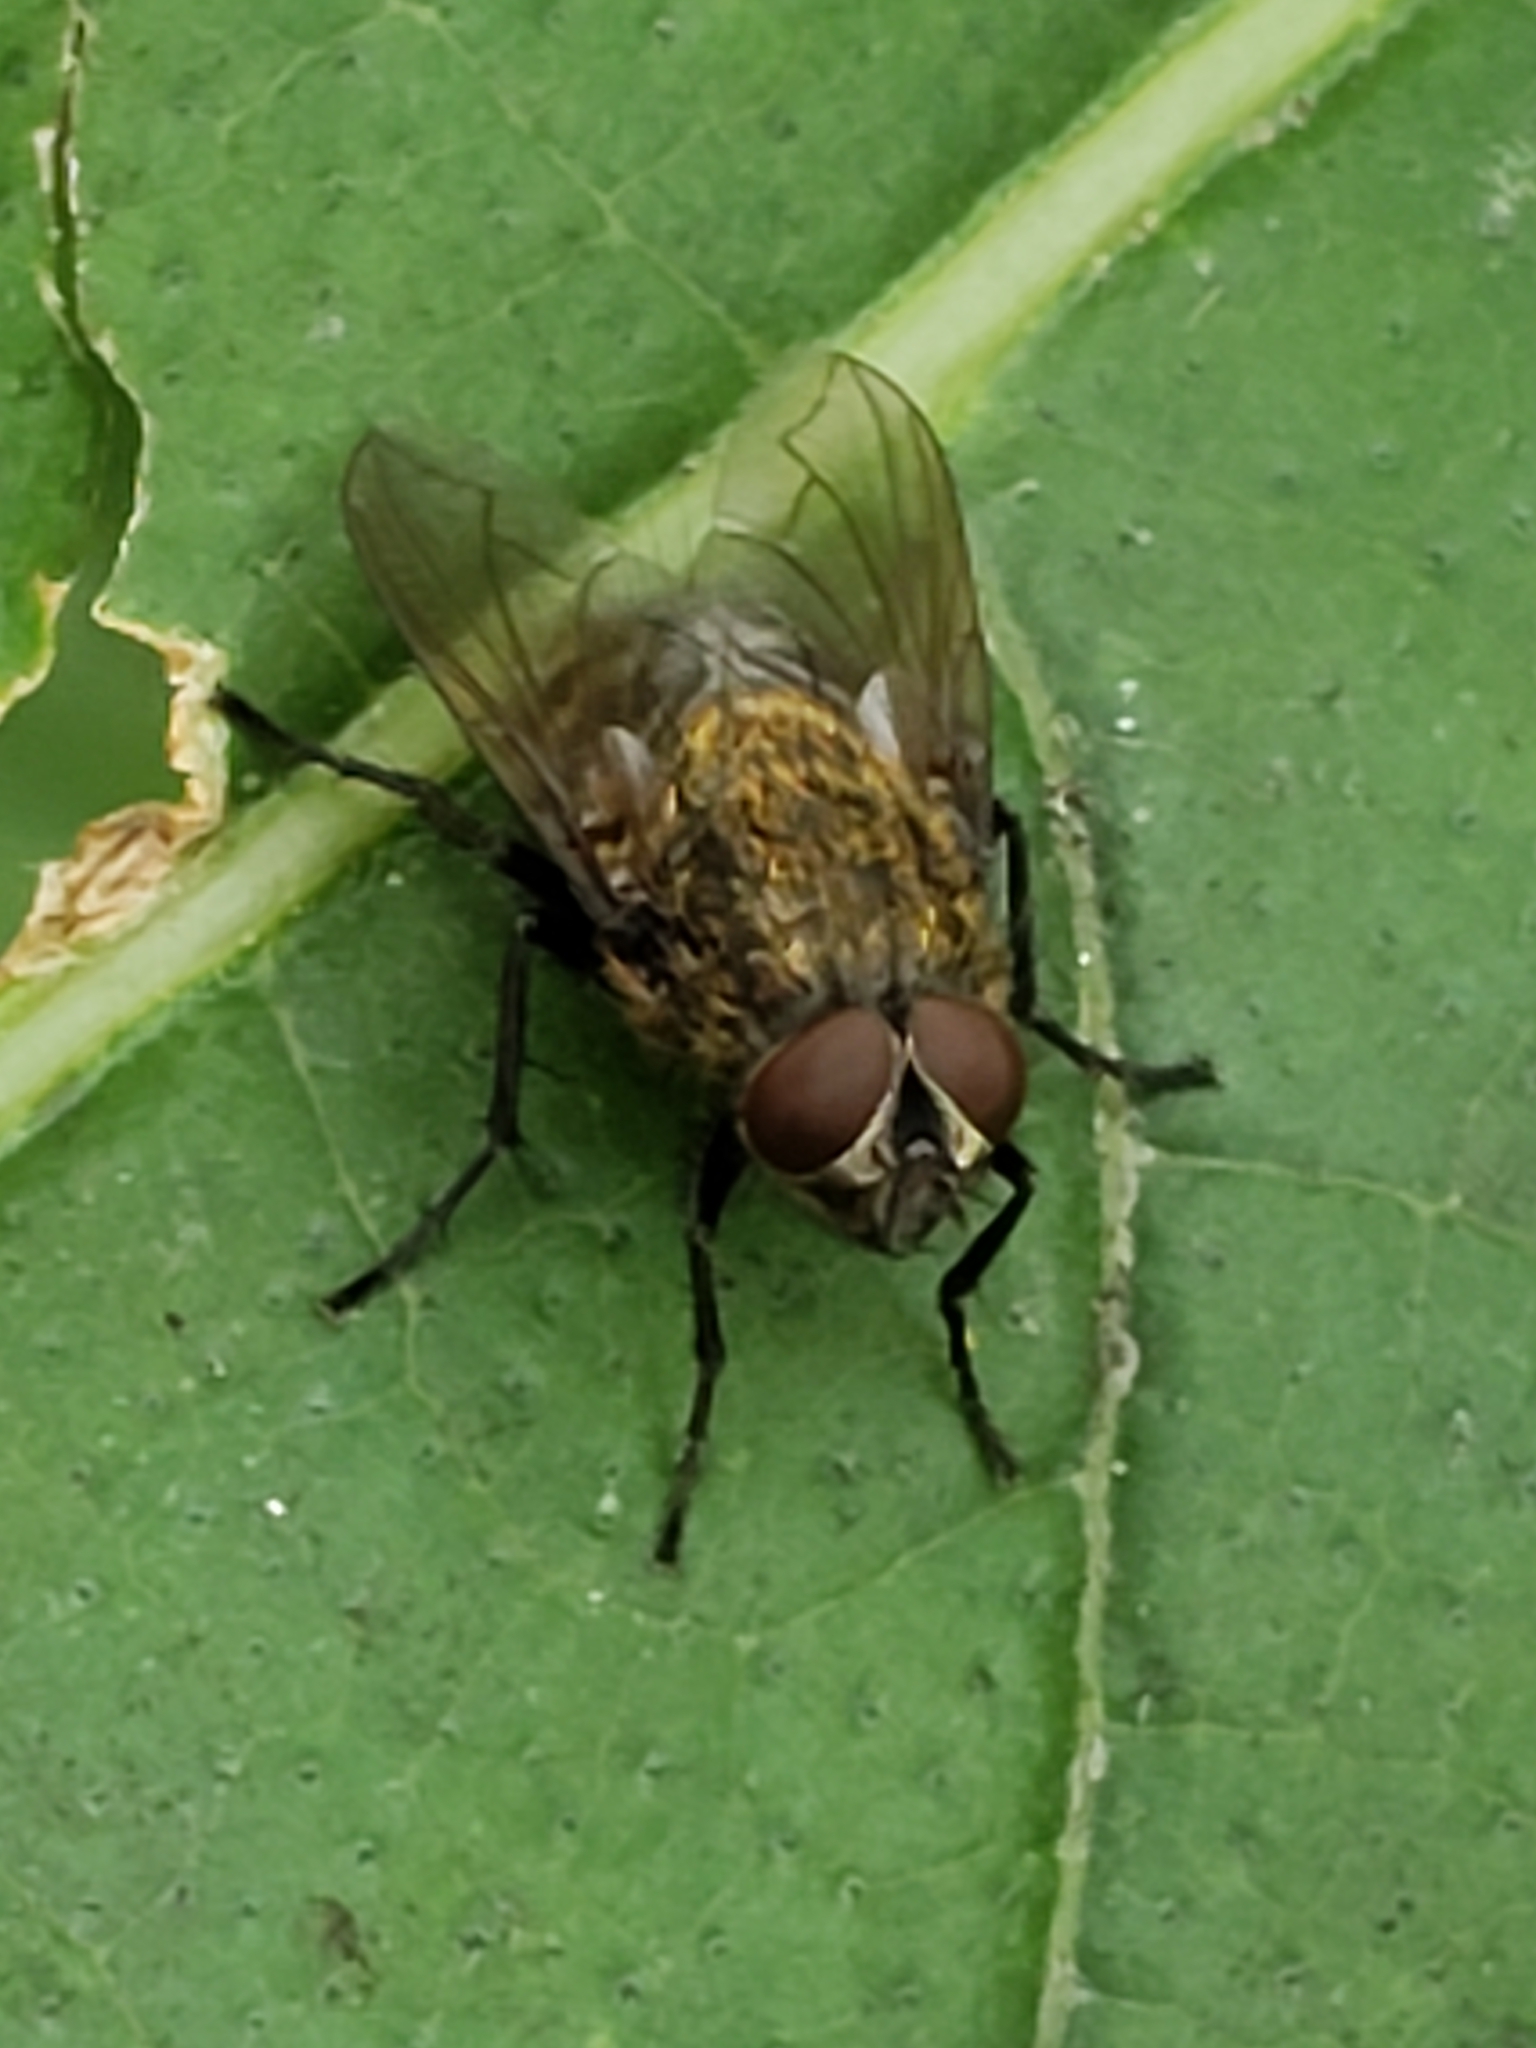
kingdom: Animalia
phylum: Arthropoda
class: Insecta
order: Diptera
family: Polleniidae
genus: Pollenia
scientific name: Pollenia
